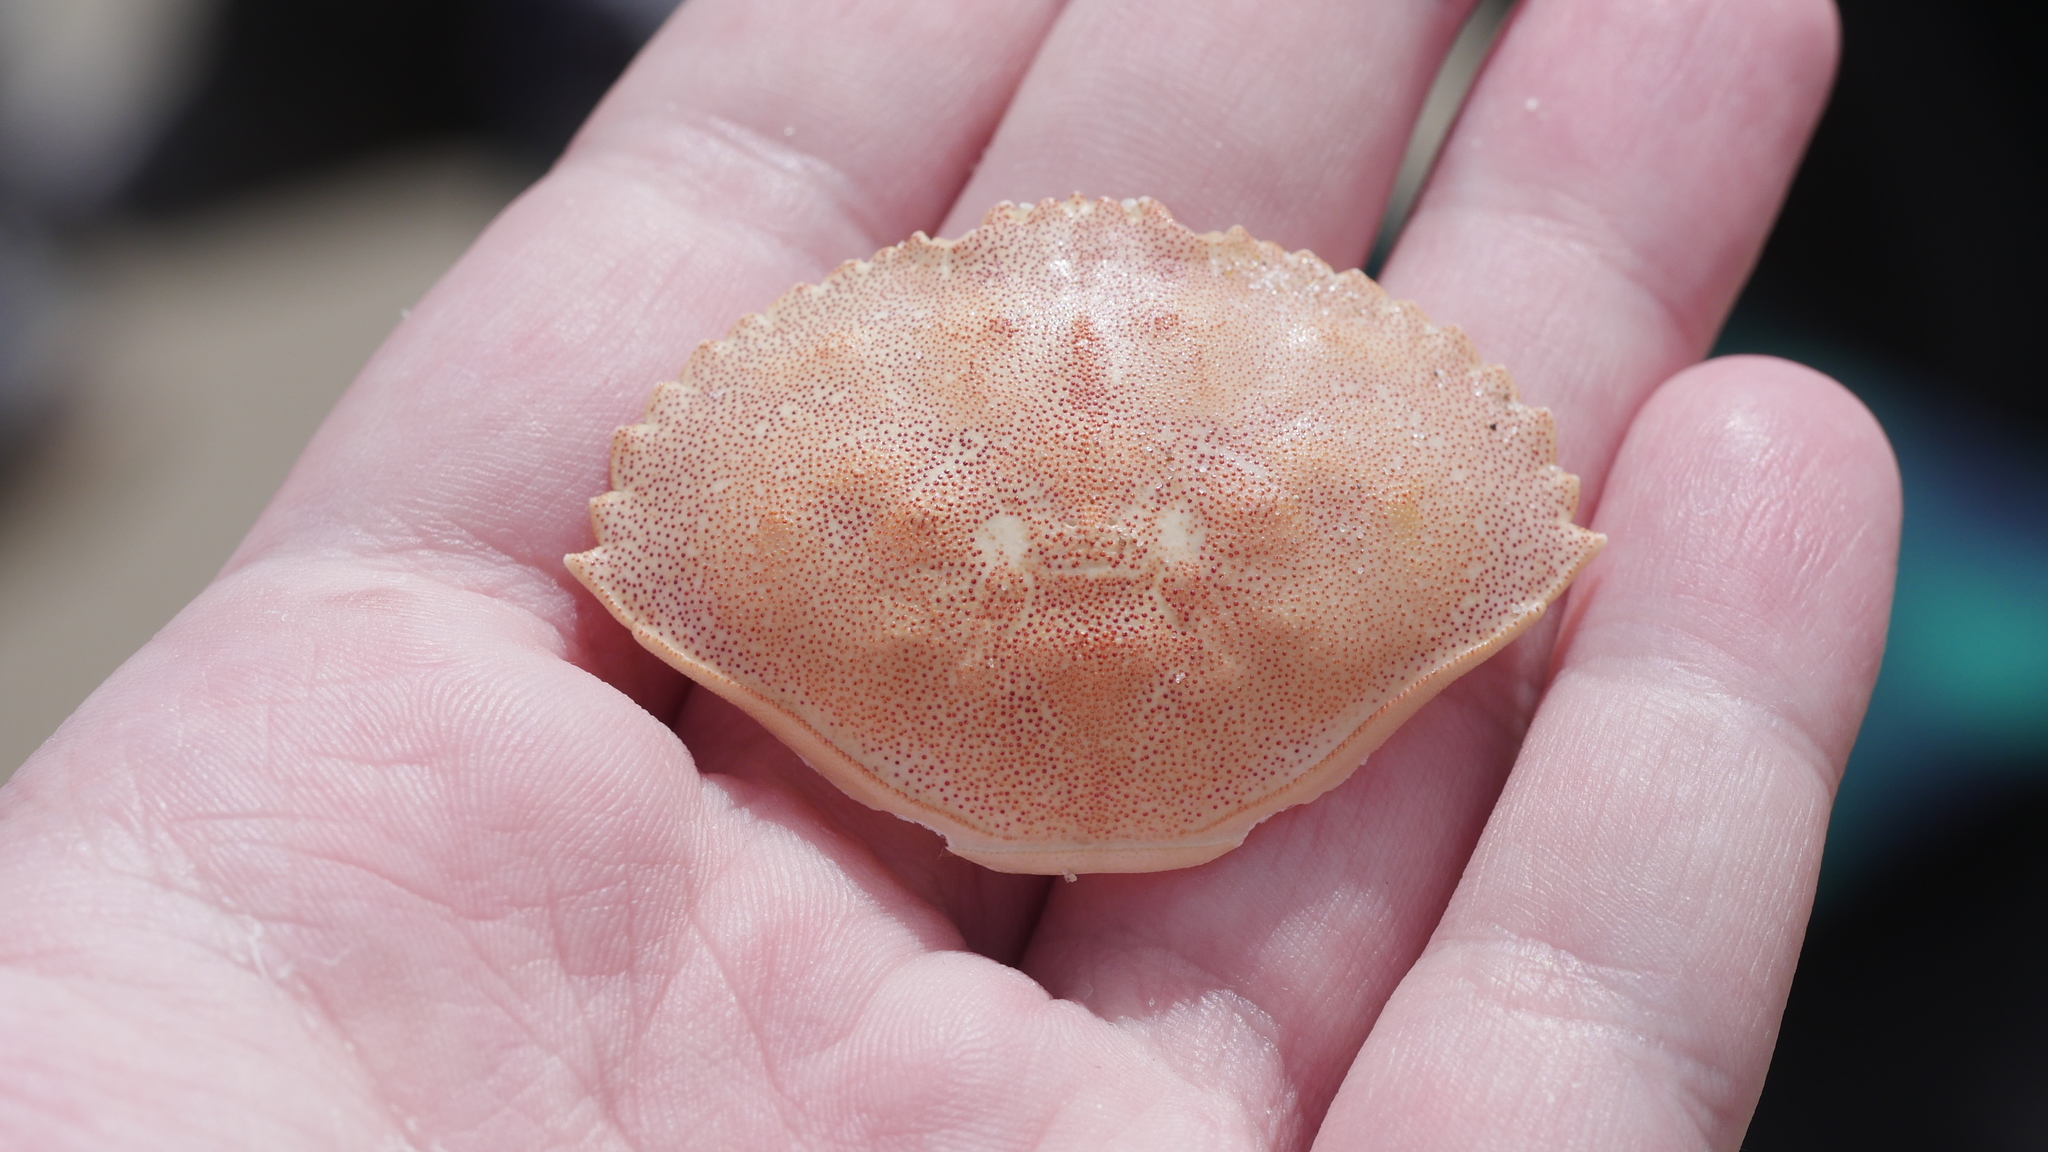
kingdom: Animalia
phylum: Arthropoda
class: Malacostraca
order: Decapoda
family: Cancridae
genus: Cancer
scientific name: Cancer irroratus
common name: Atlantic rock crab
